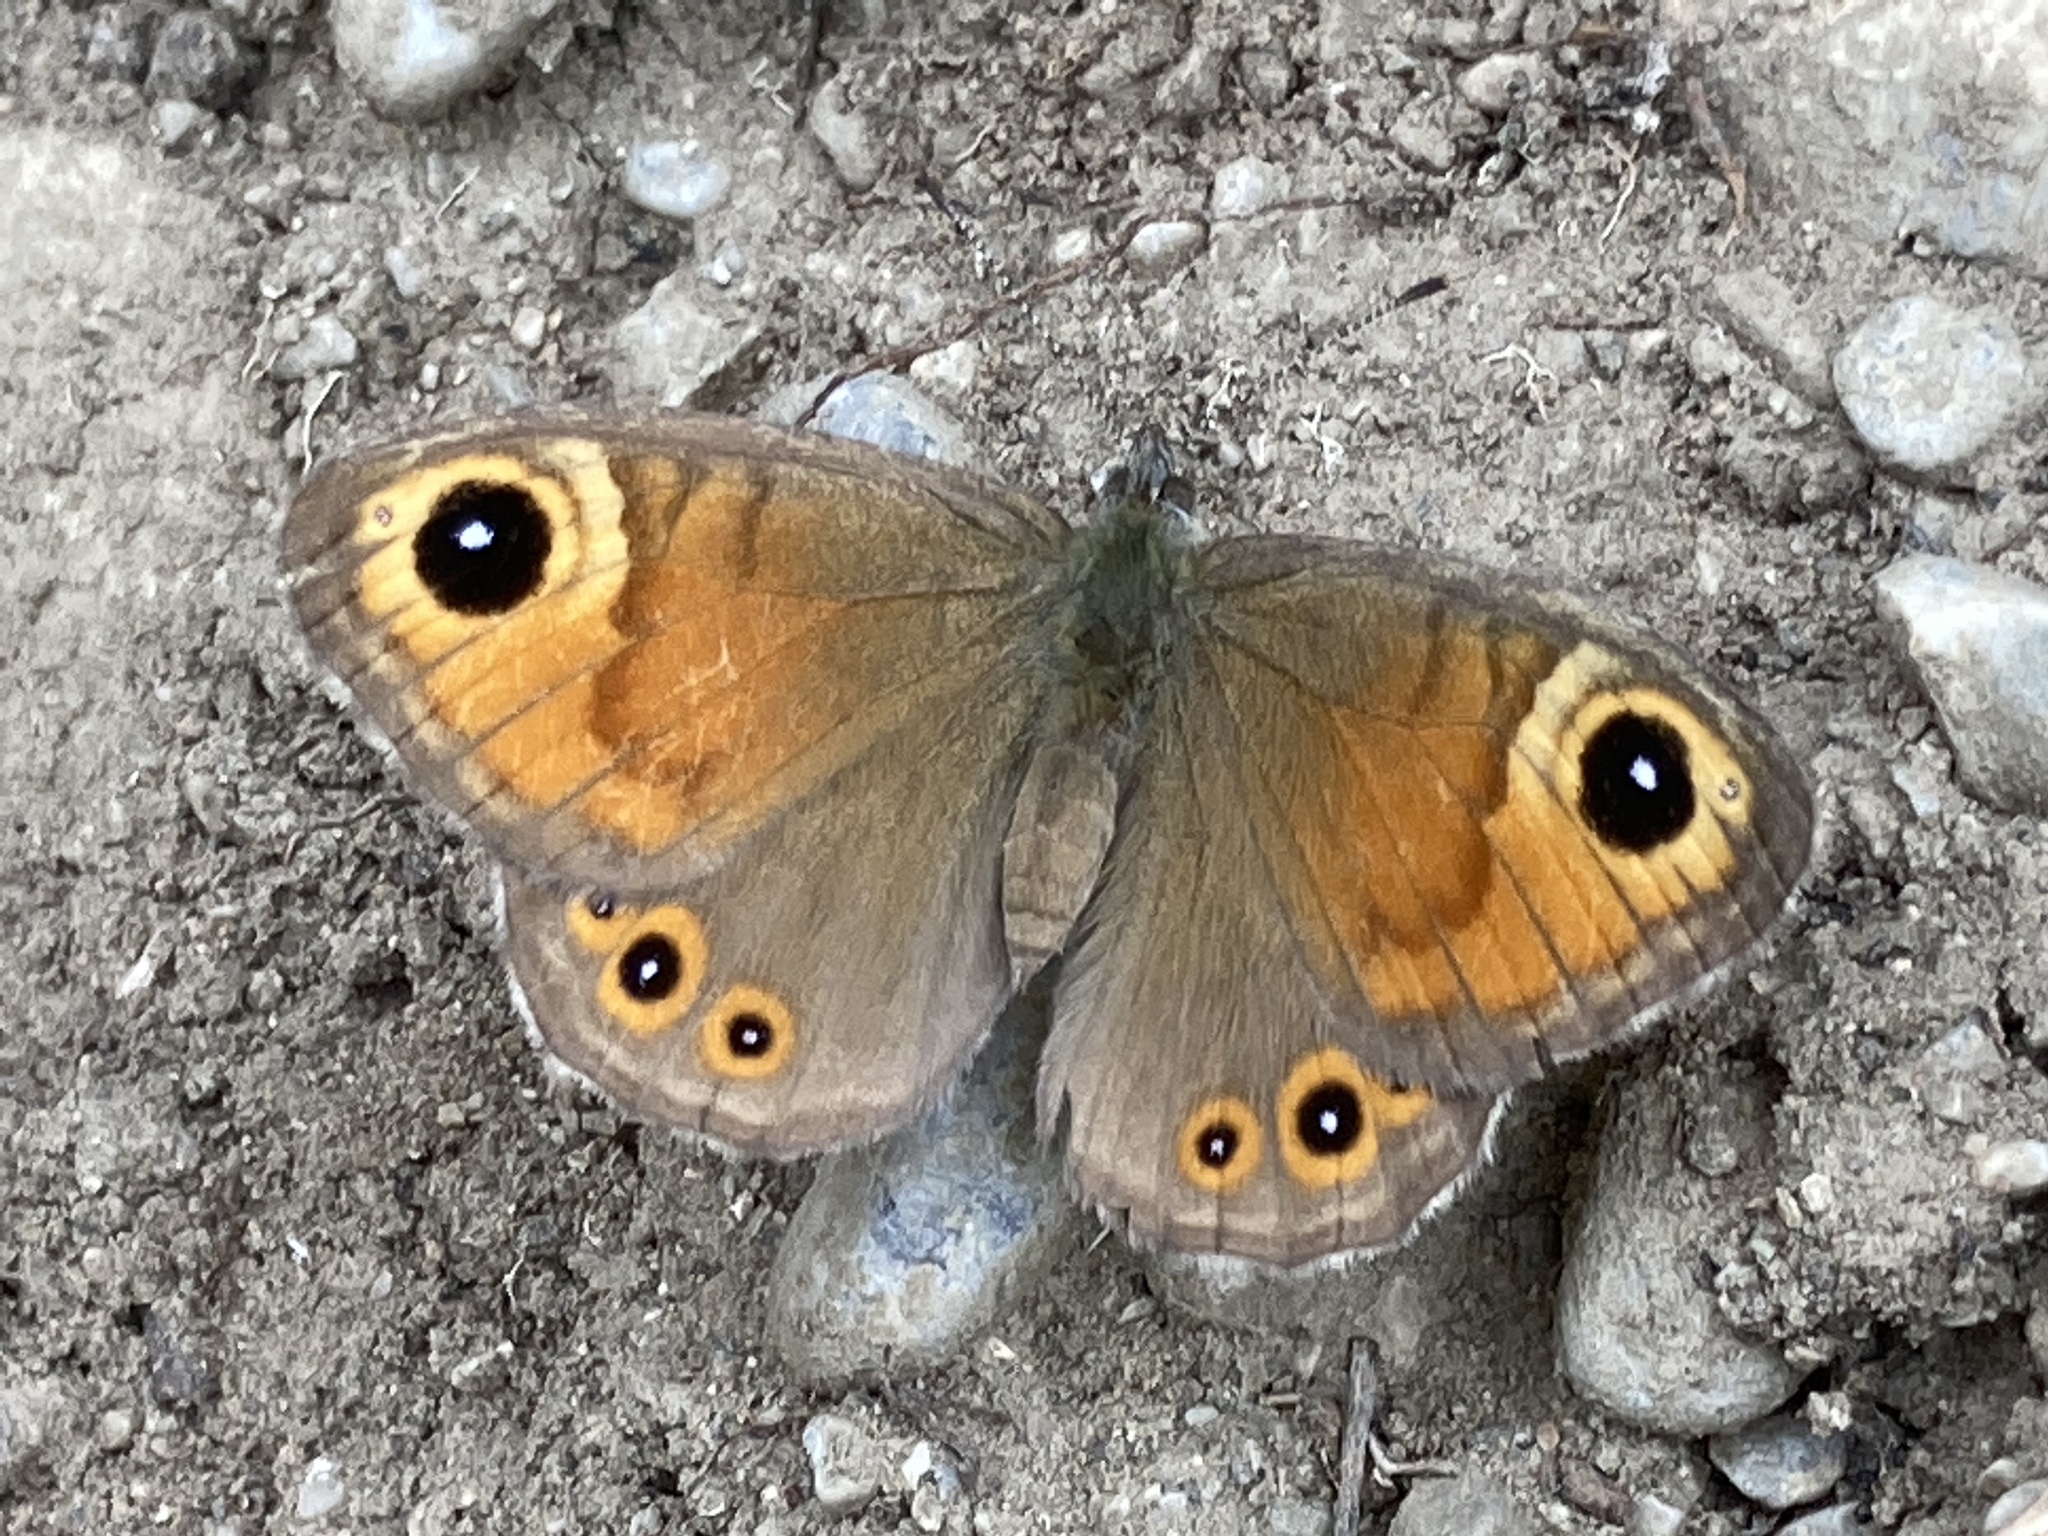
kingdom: Animalia
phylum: Arthropoda
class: Insecta
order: Lepidoptera
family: Nymphalidae
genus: Pararge
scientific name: Pararge Lasiommata maera
